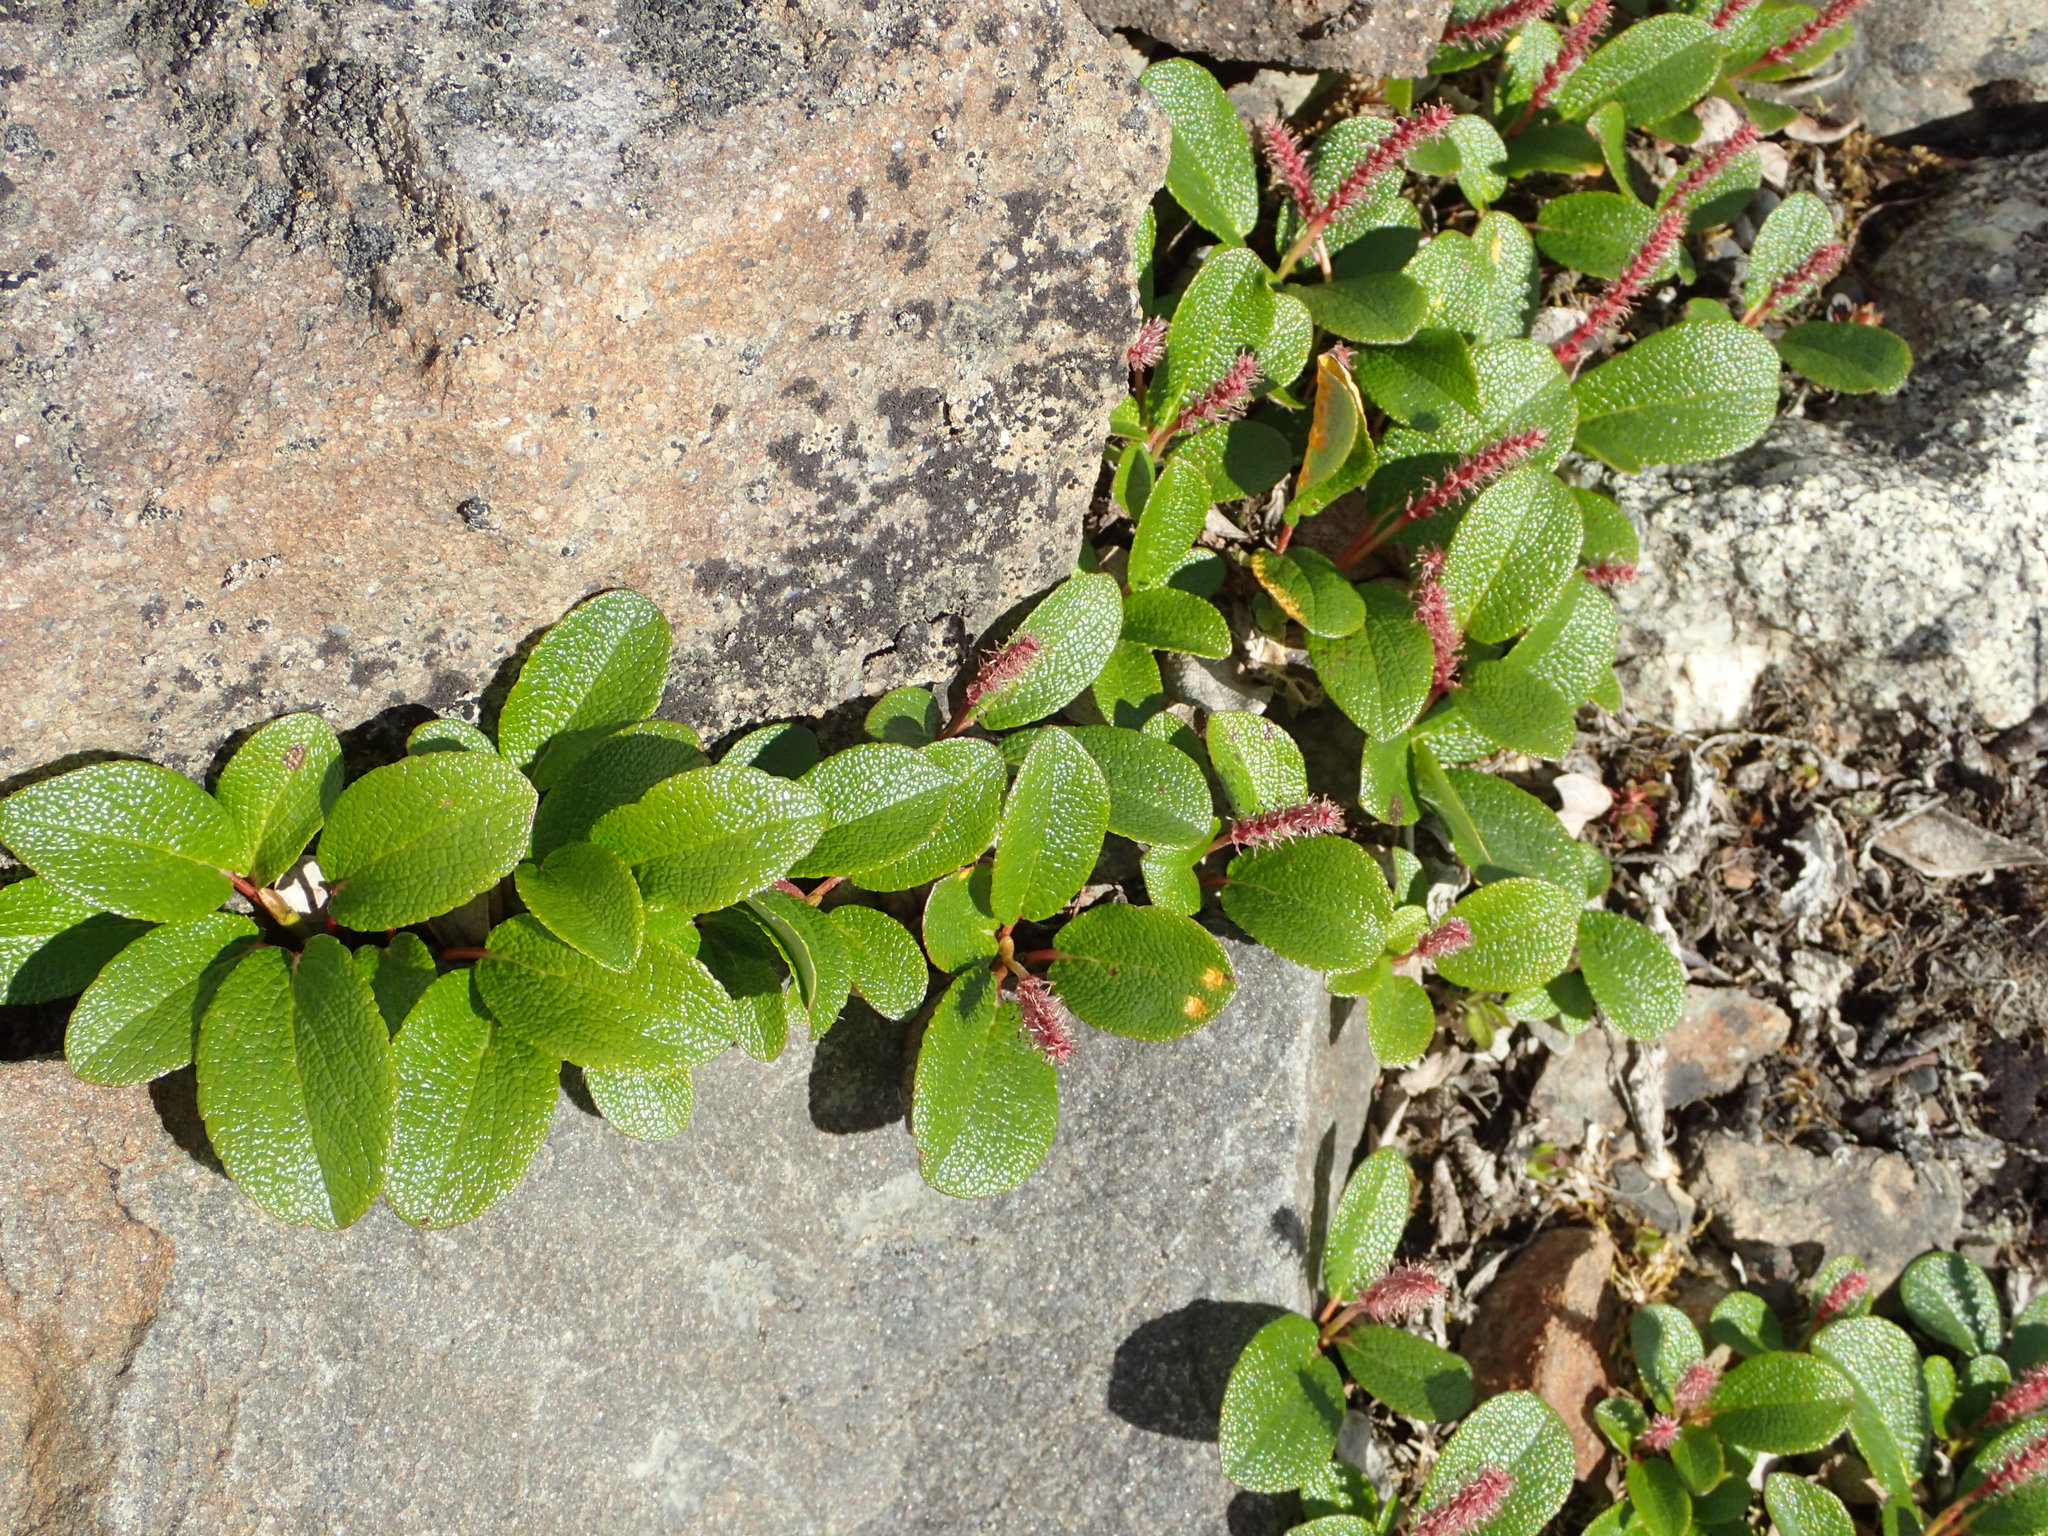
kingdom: Plantae
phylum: Tracheophyta
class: Magnoliopsida
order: Malpighiales
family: Salicaceae
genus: Salix
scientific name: Salix reticulata
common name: Net-leaved willow
